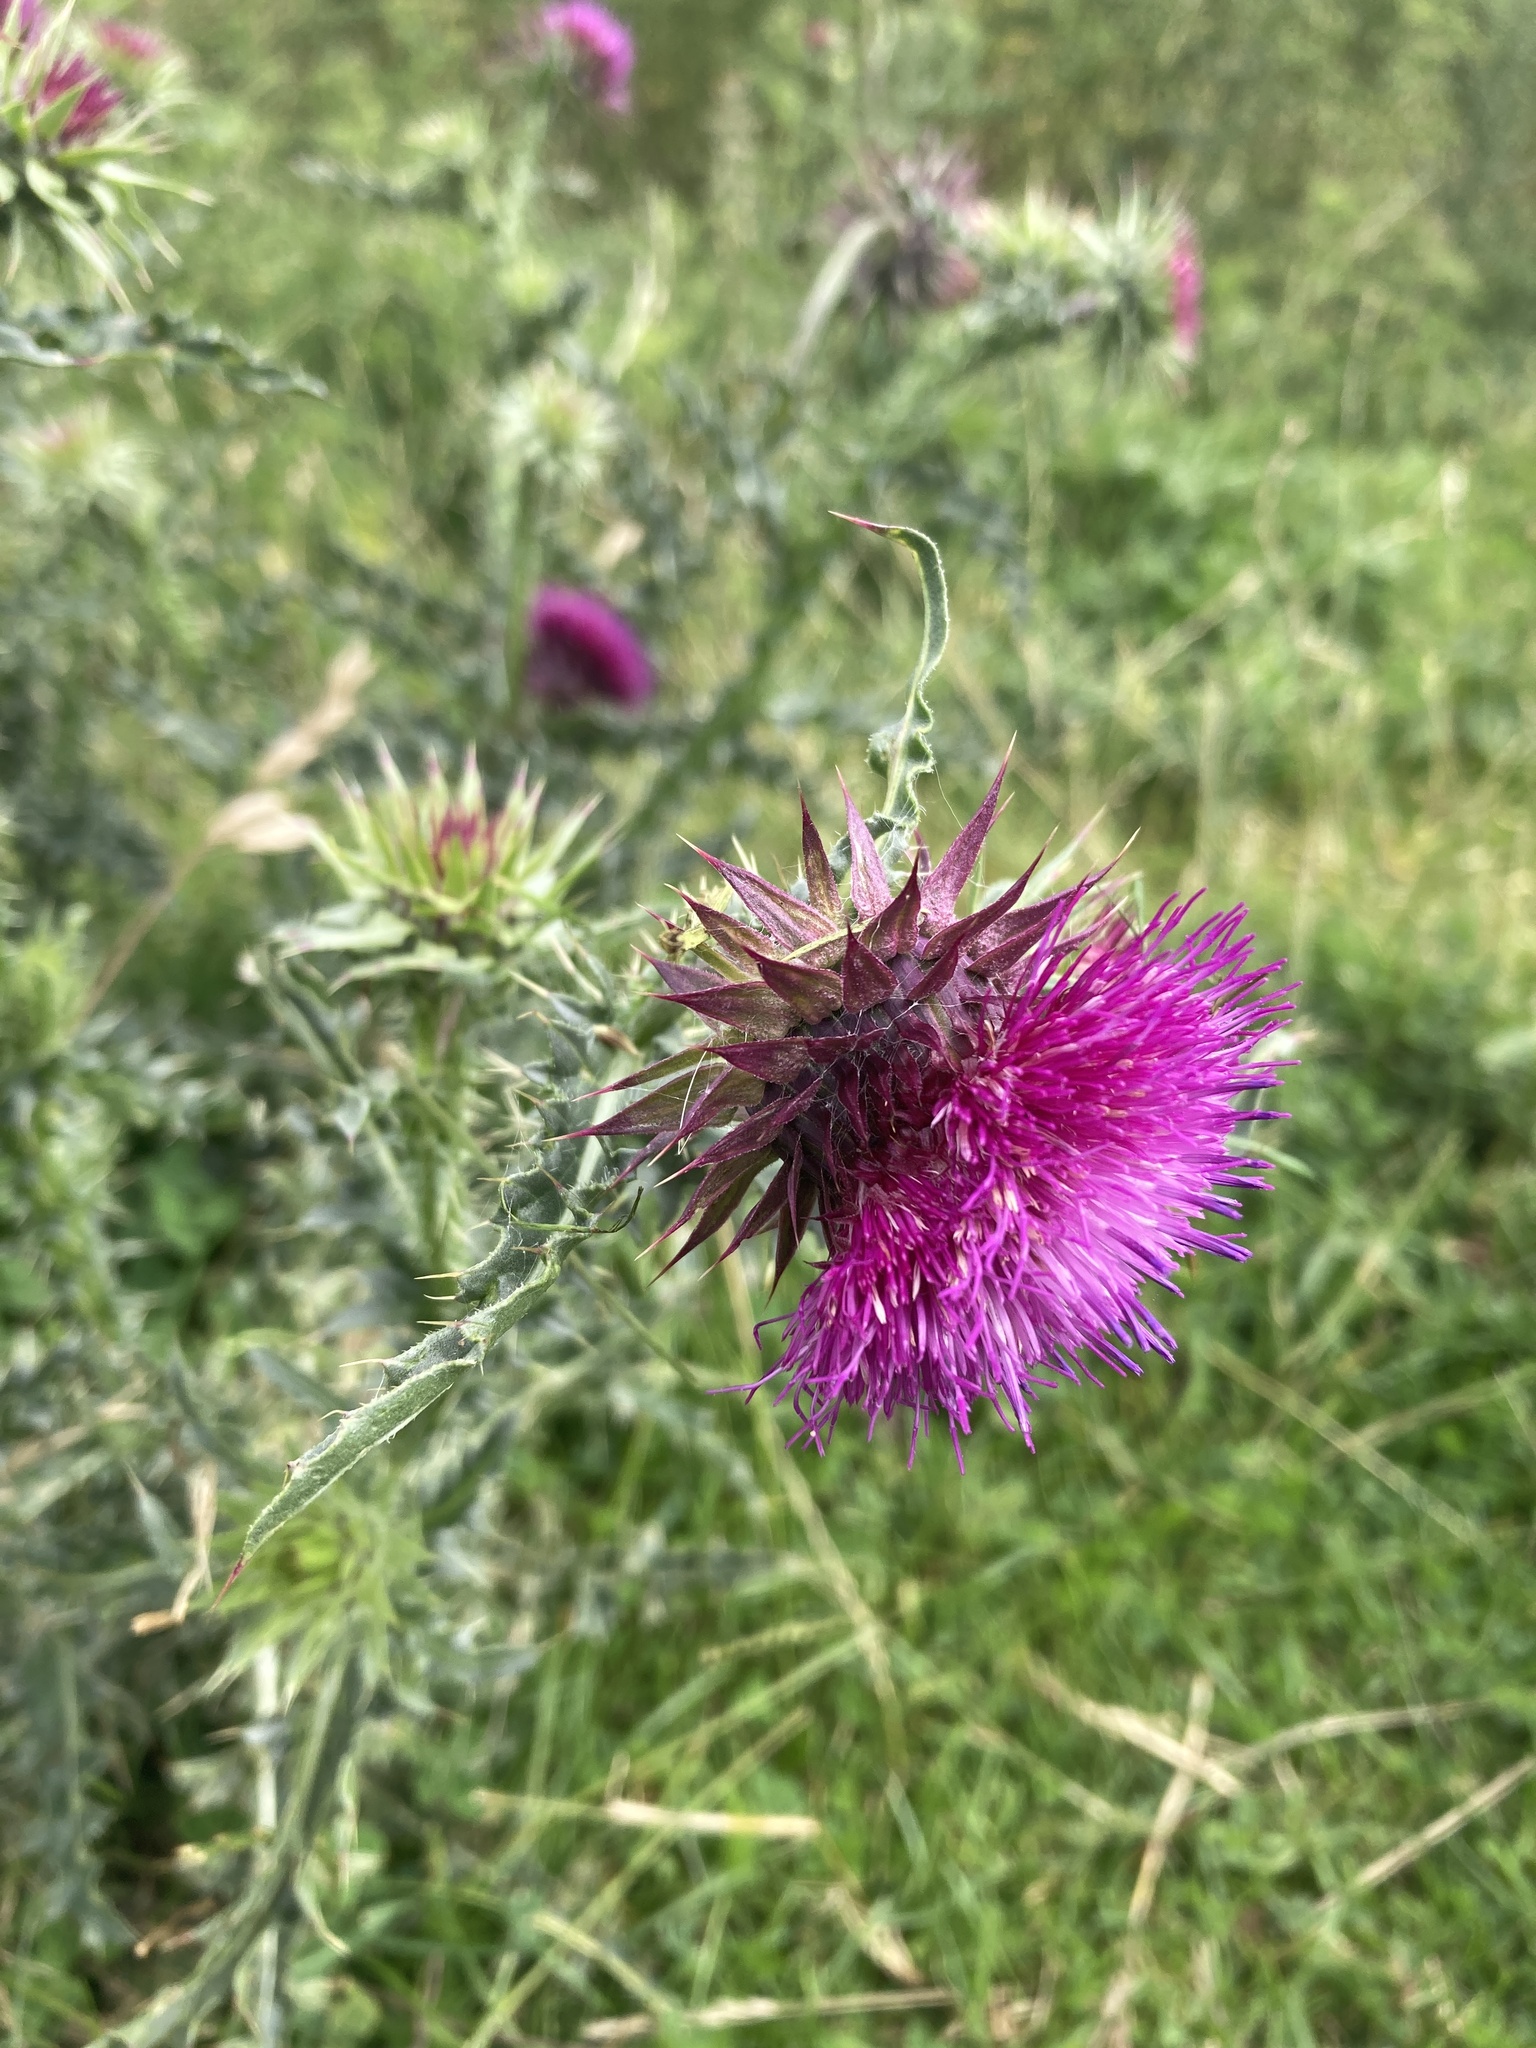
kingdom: Plantae
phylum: Tracheophyta
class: Magnoliopsida
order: Asterales
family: Asteraceae
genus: Carduus
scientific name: Carduus nutans
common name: Musk thistle
